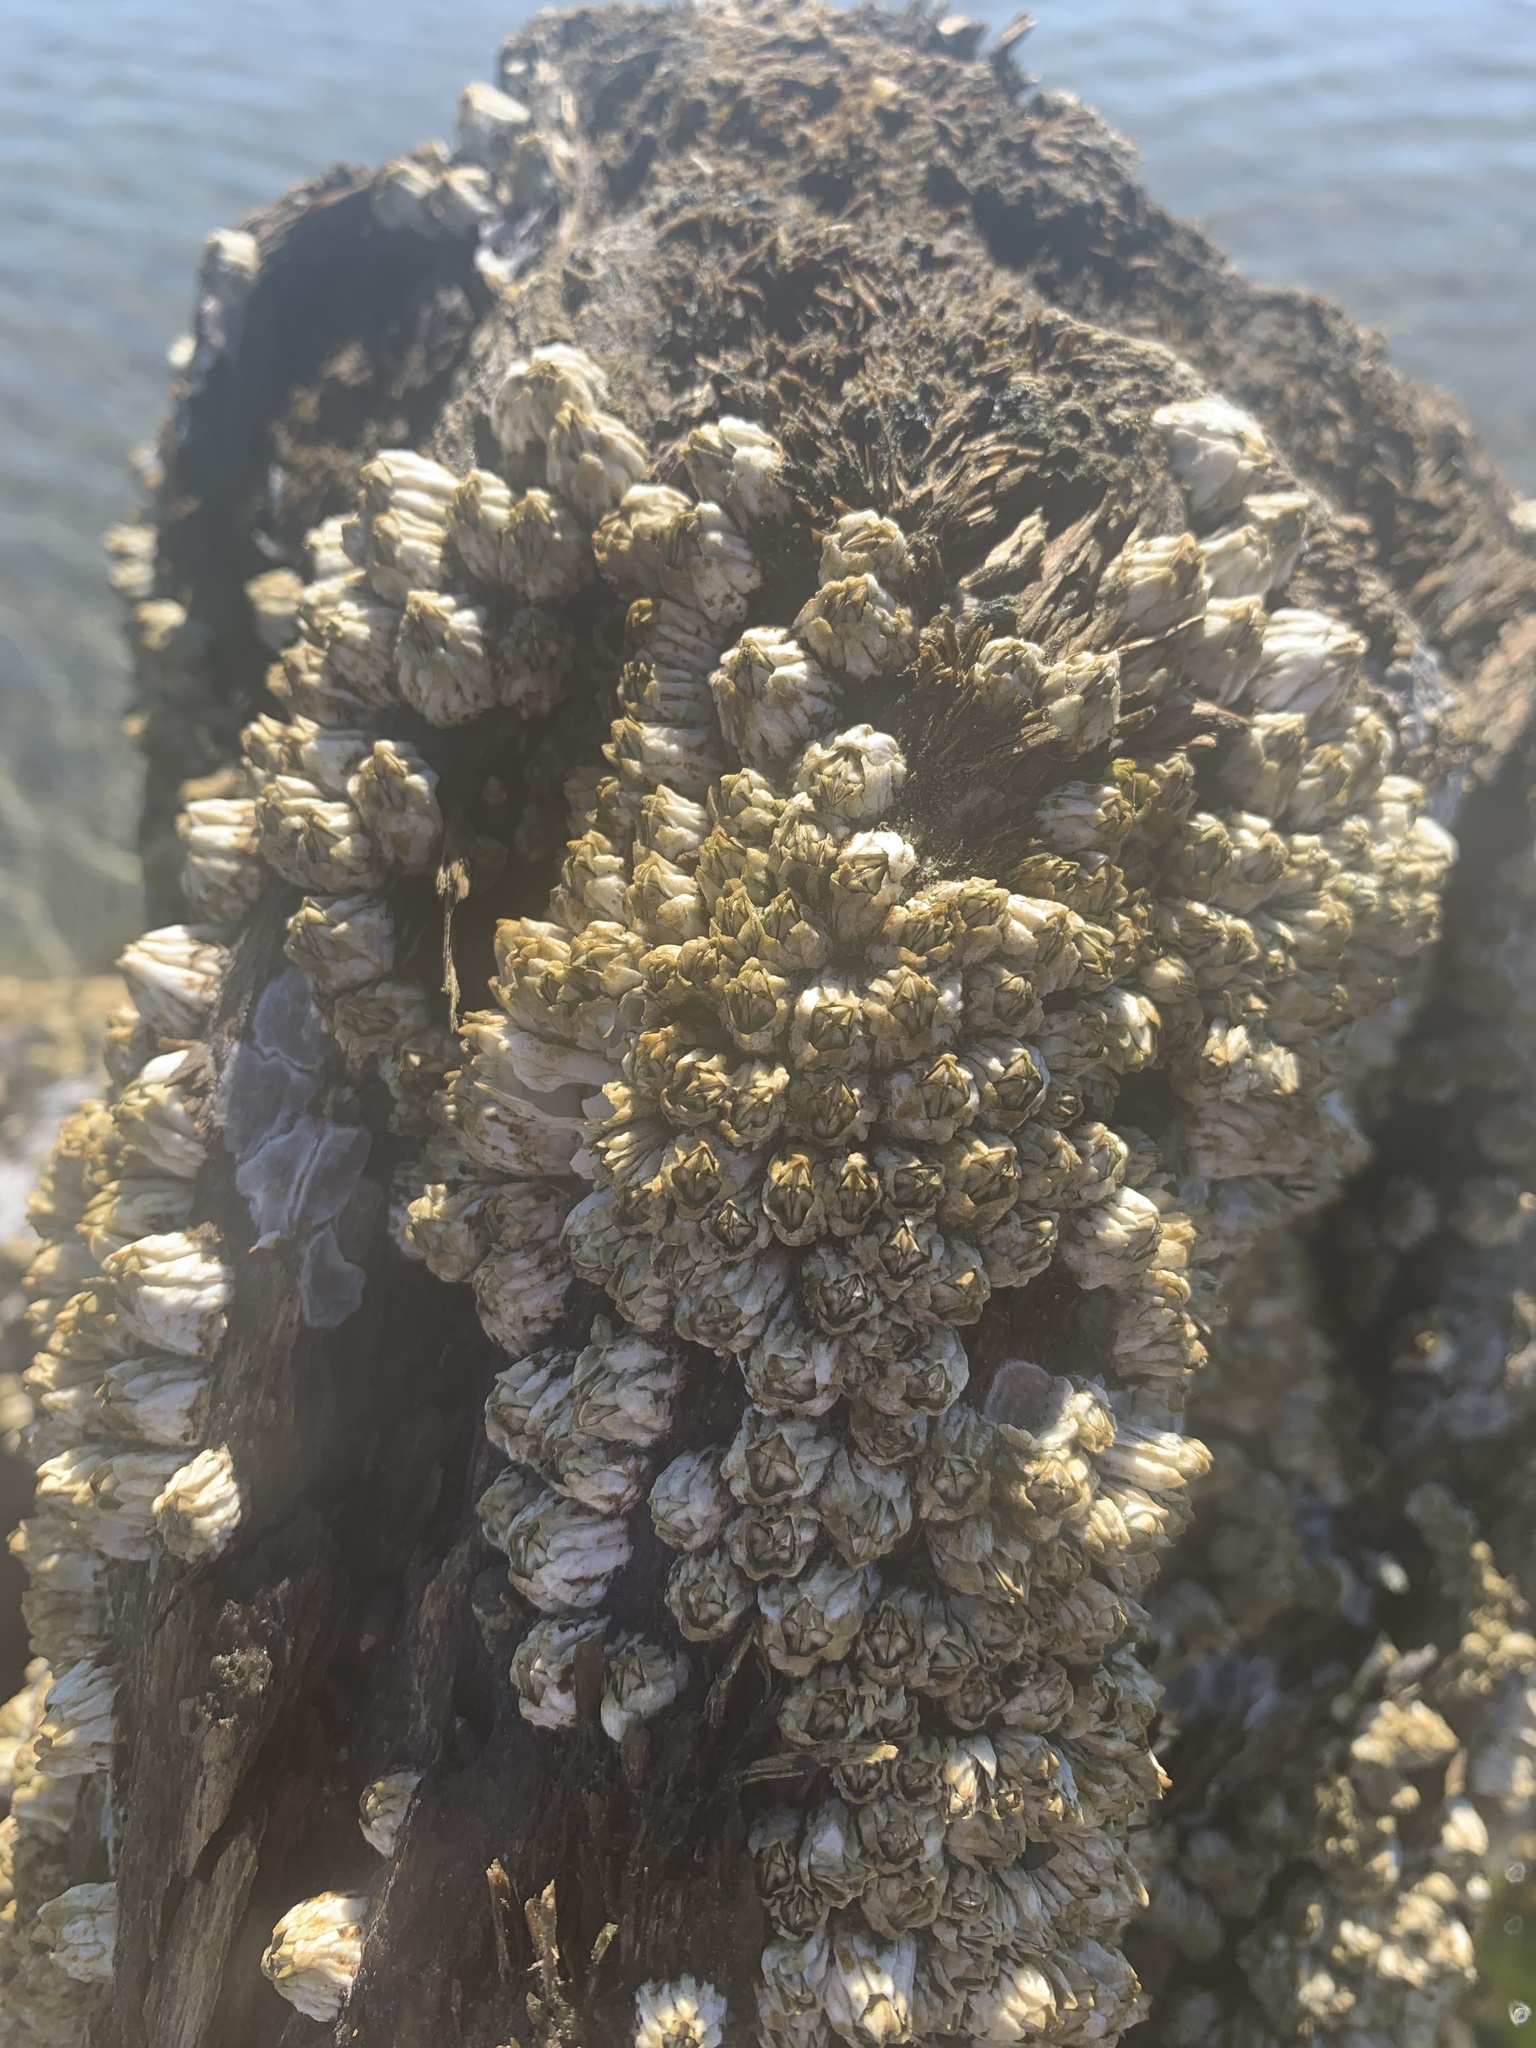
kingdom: Animalia
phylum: Arthropoda
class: Maxillopoda
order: Sessilia
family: Balanidae
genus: Balanus
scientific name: Balanus glandula
